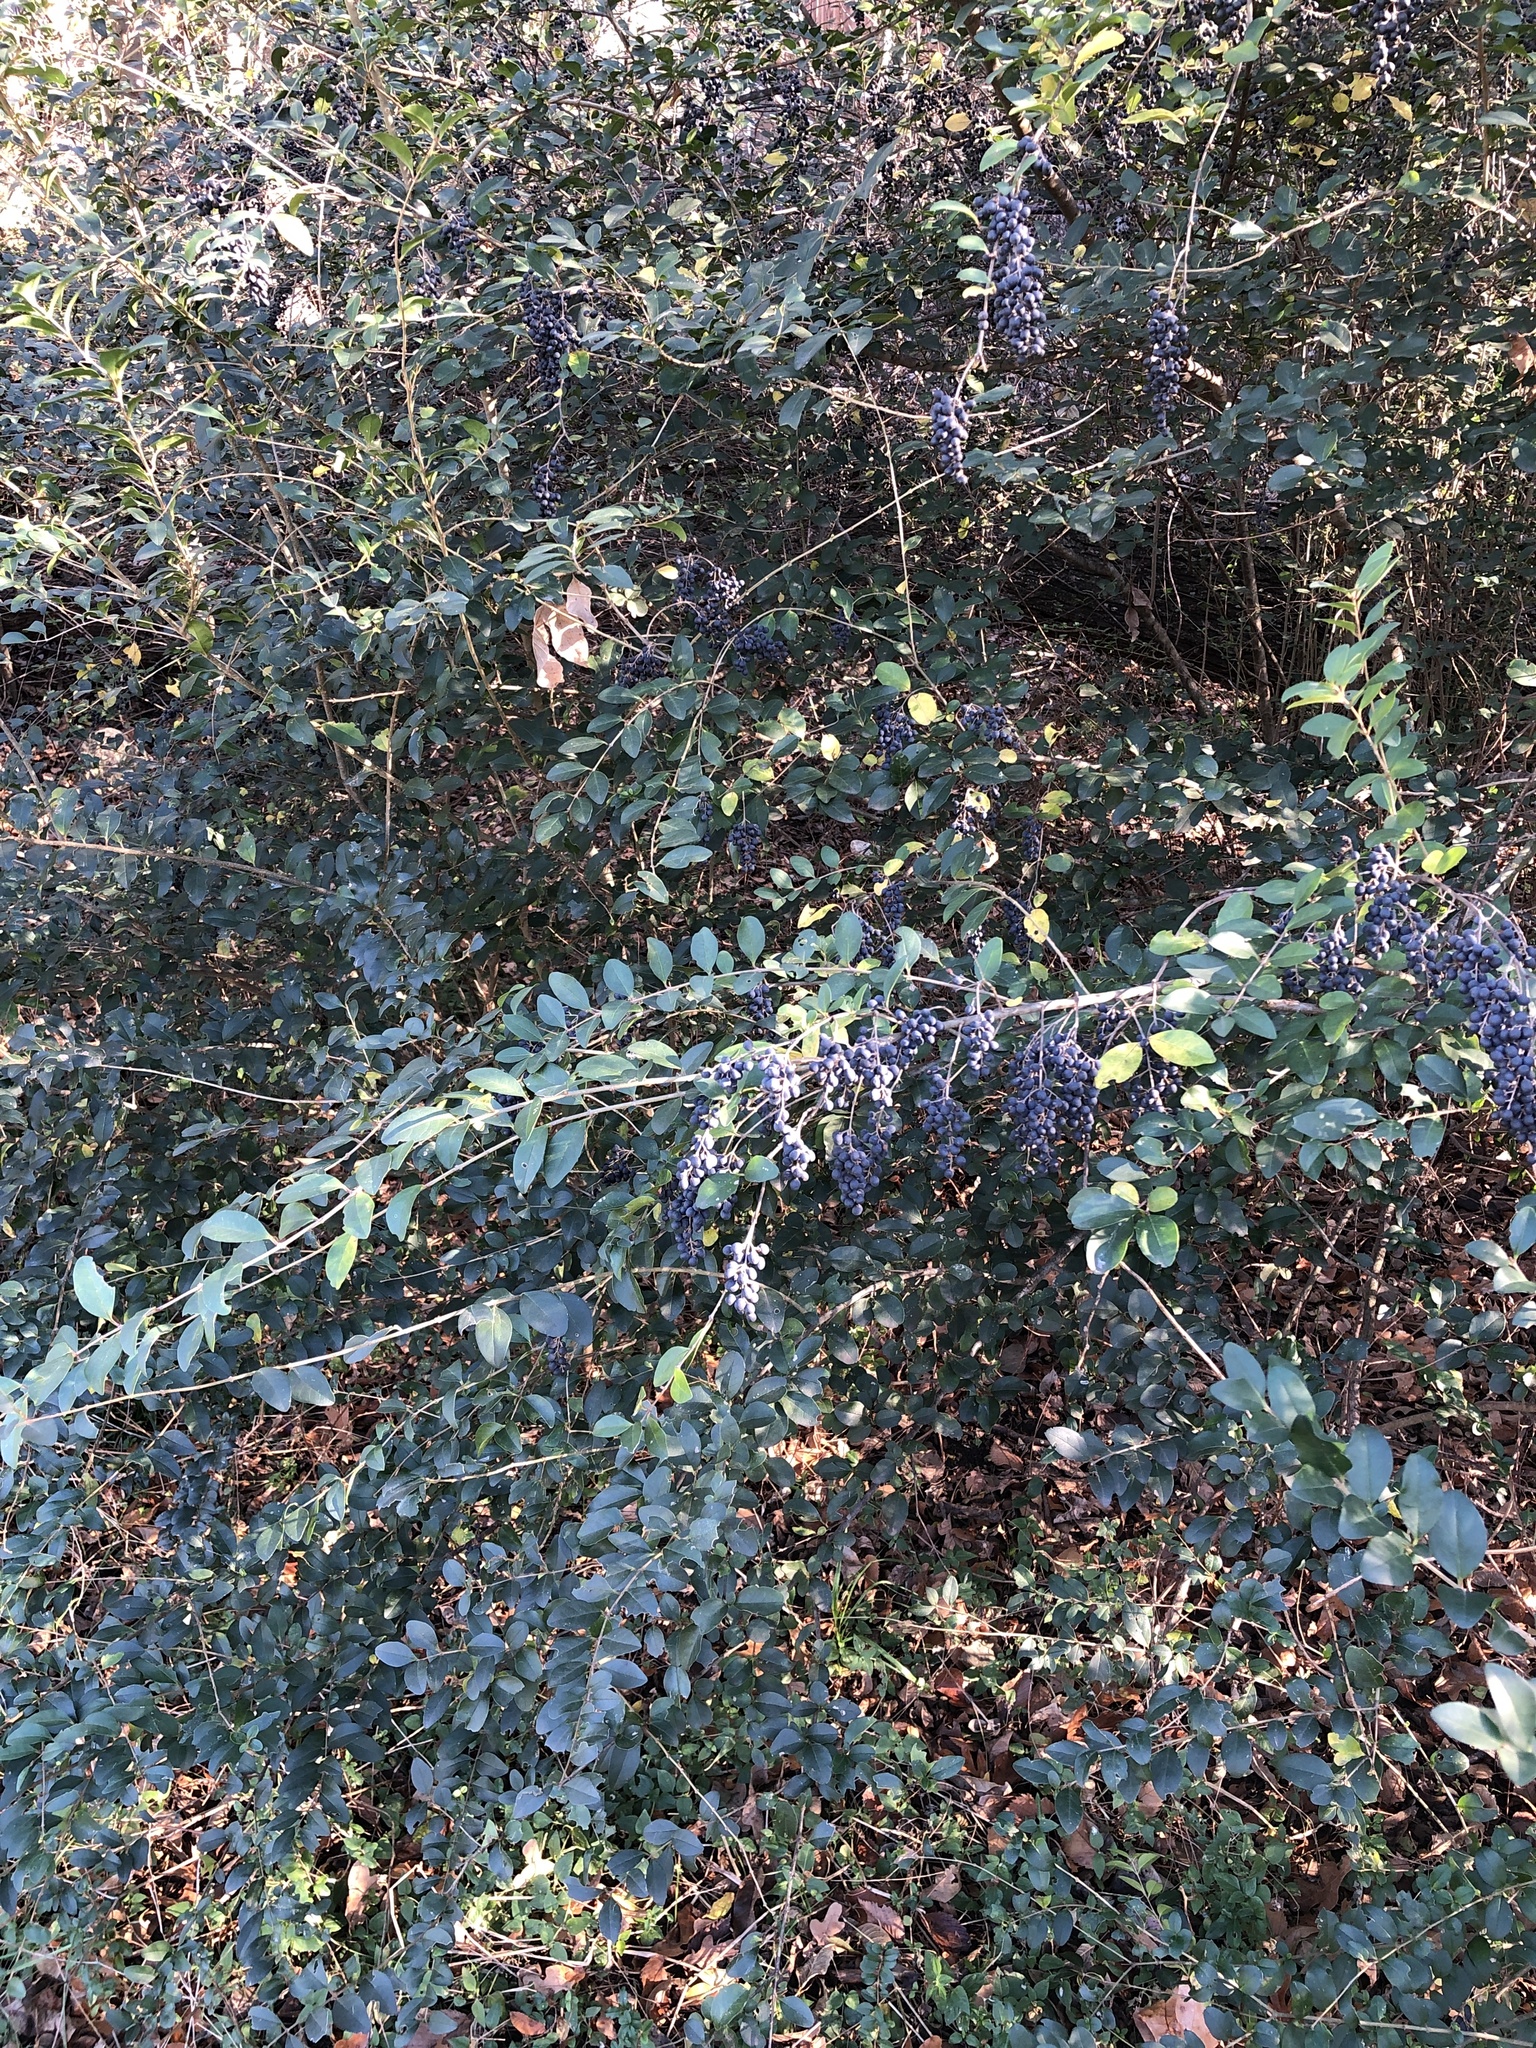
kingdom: Plantae
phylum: Tracheophyta
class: Magnoliopsida
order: Lamiales
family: Oleaceae
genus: Ligustrum
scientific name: Ligustrum sinense
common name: Chinese privet
